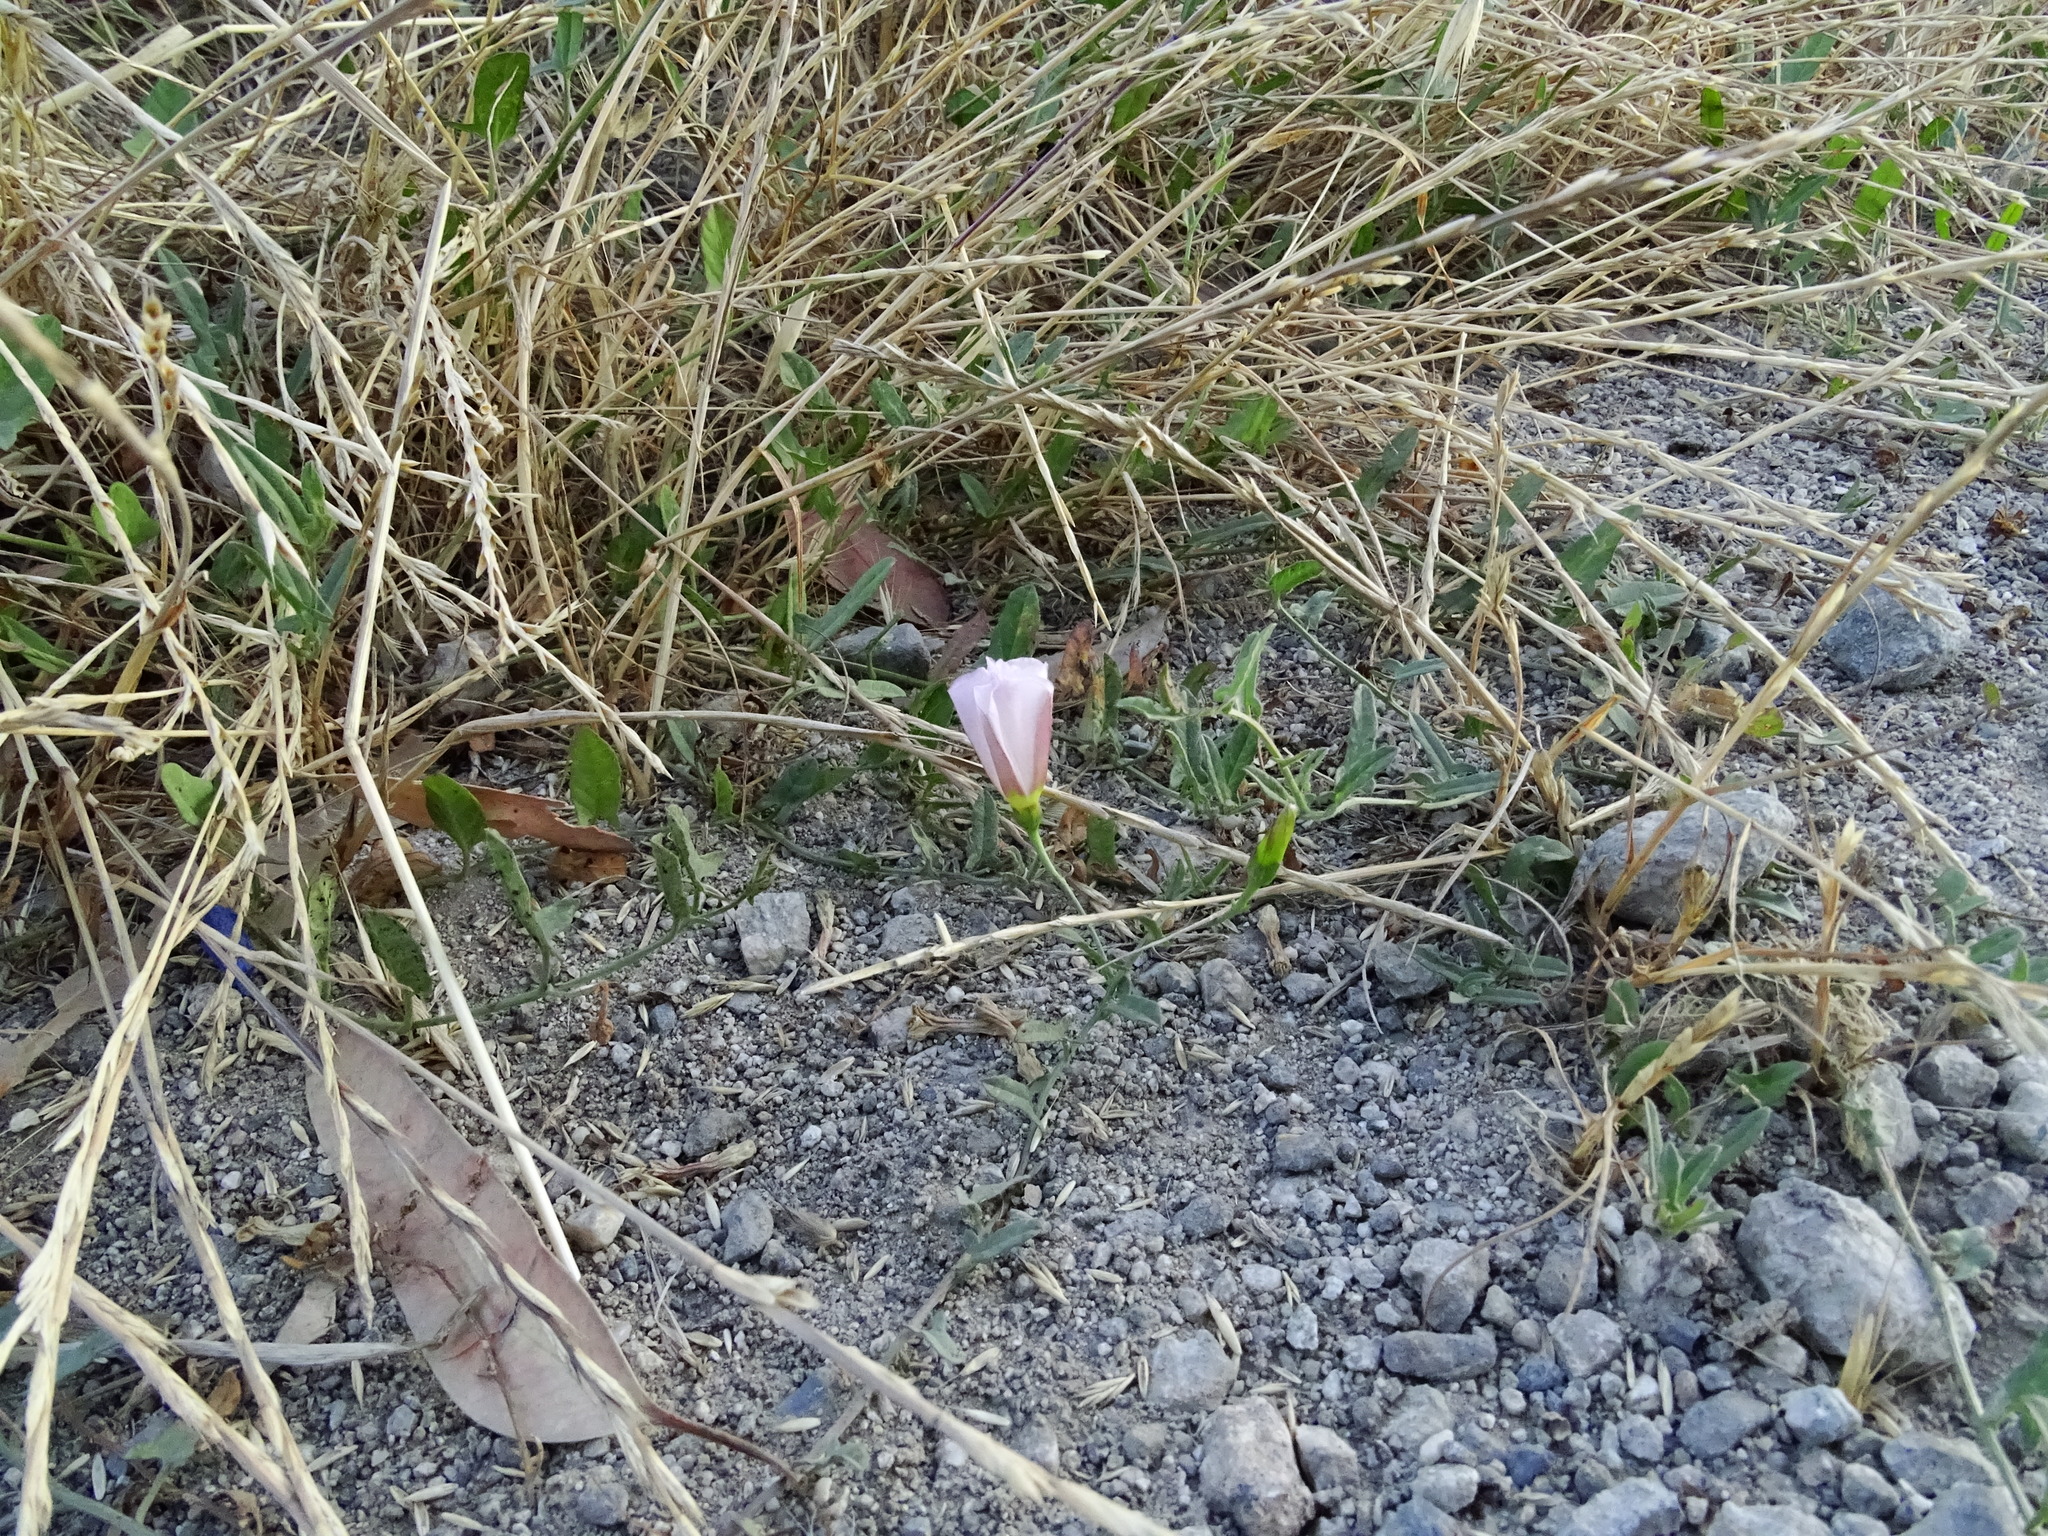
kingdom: Plantae
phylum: Tracheophyta
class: Magnoliopsida
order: Solanales
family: Convolvulaceae
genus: Convolvulus
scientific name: Convolvulus arvensis
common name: Field bindweed
